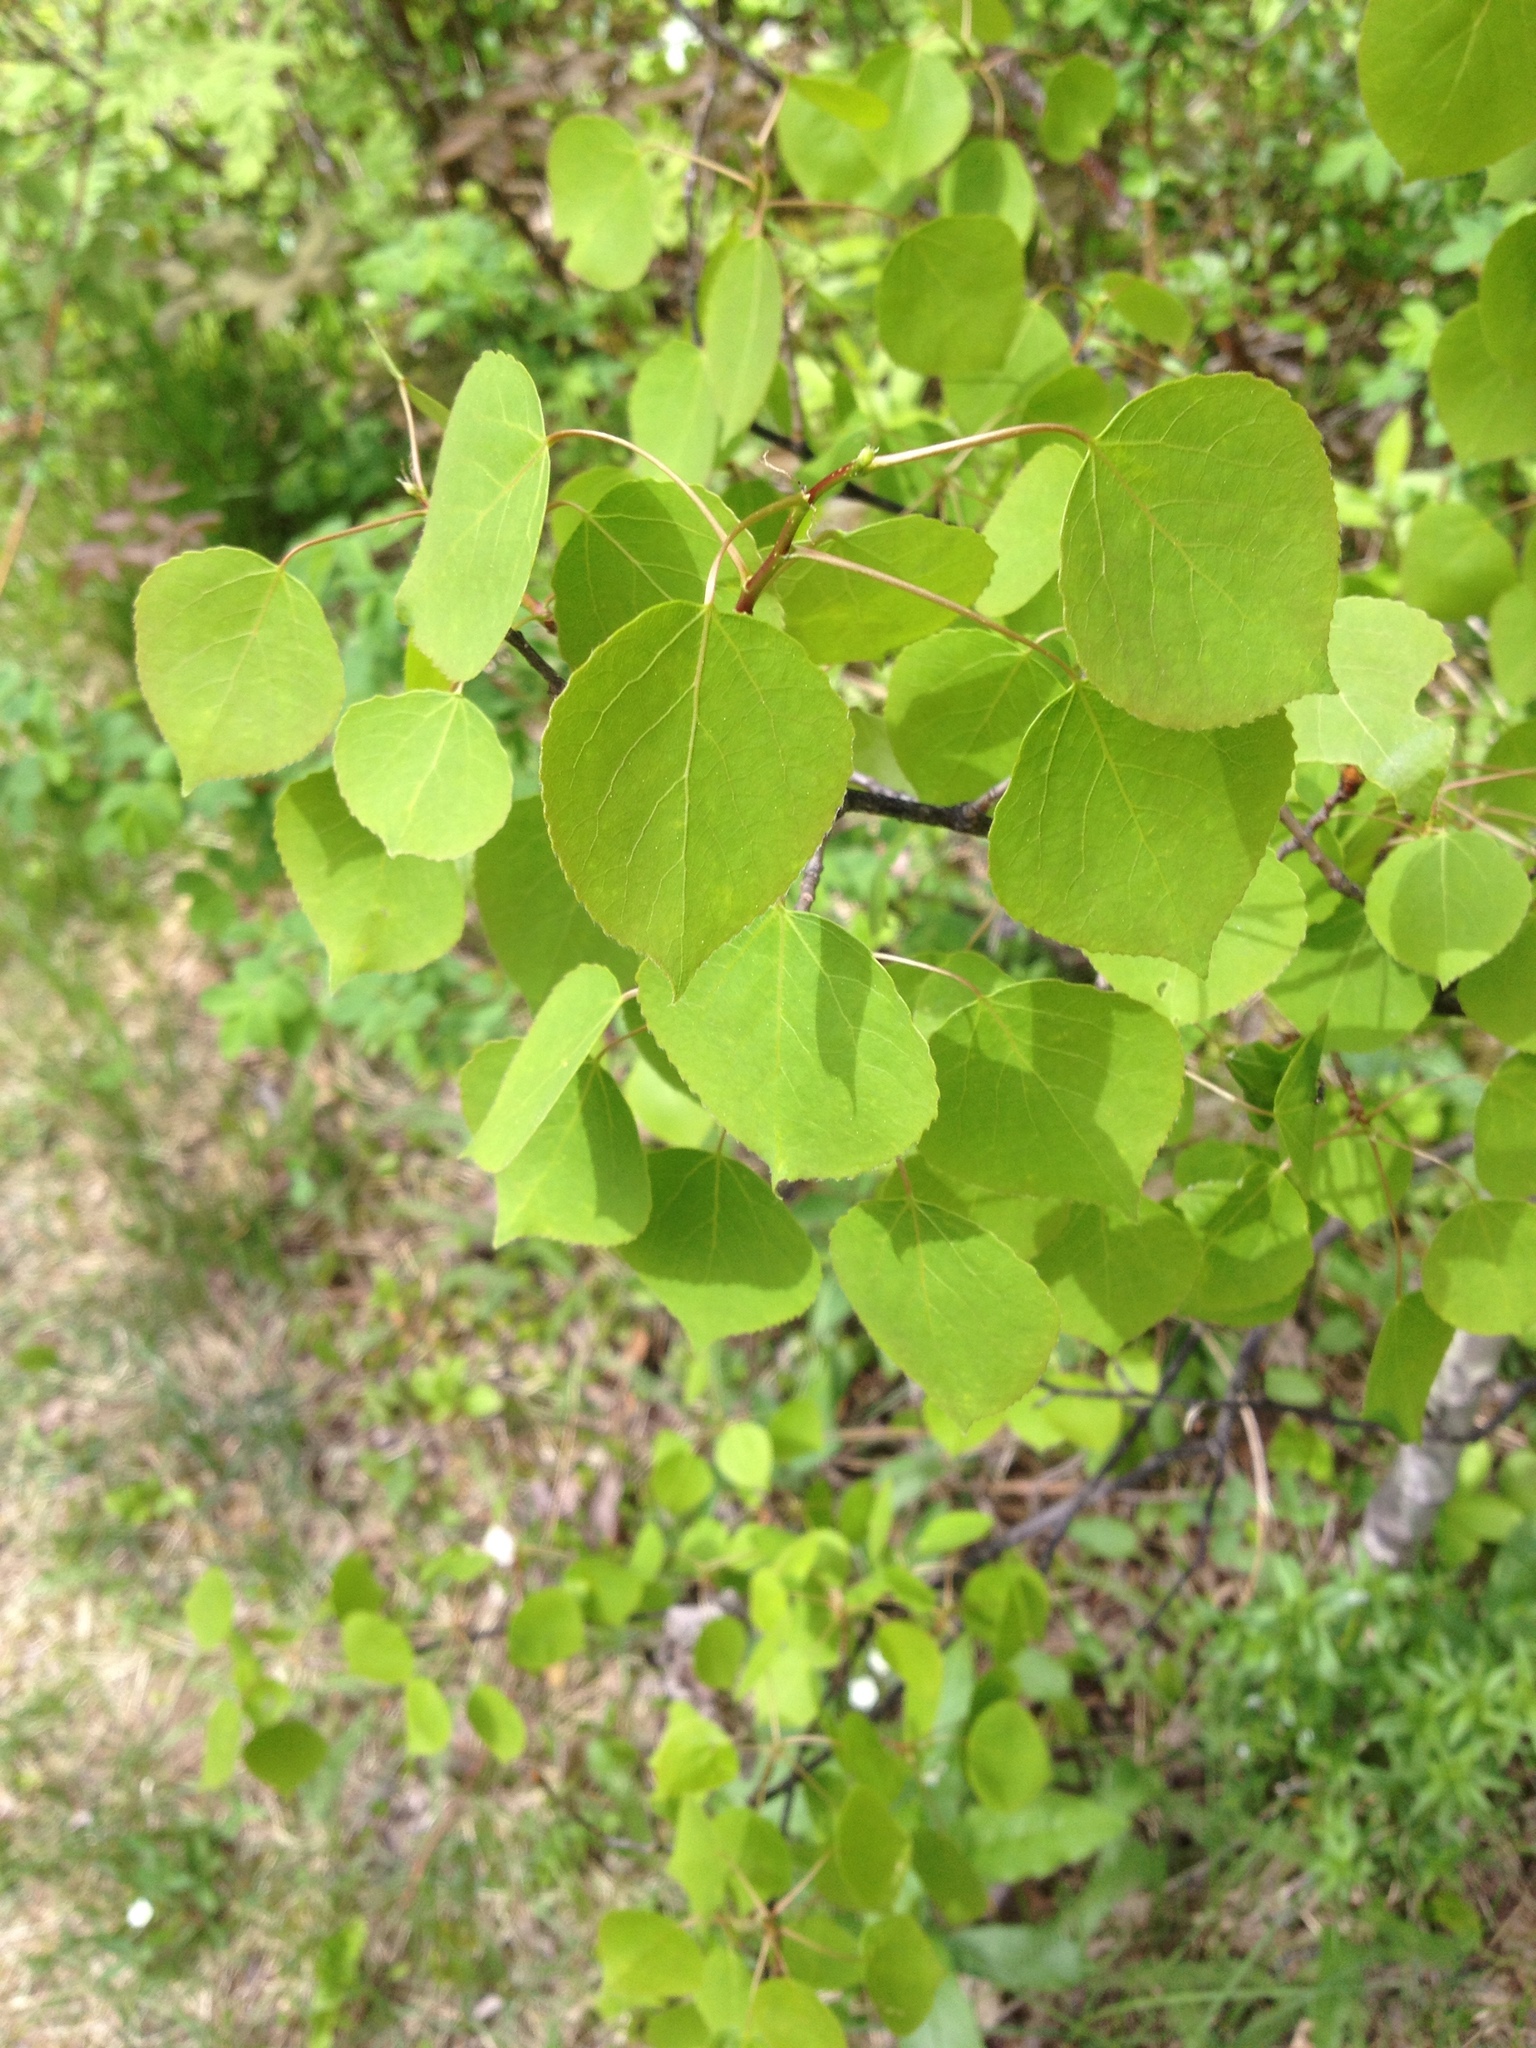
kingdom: Plantae
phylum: Tracheophyta
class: Magnoliopsida
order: Malpighiales
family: Salicaceae
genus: Populus
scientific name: Populus tremuloides
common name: Quaking aspen
